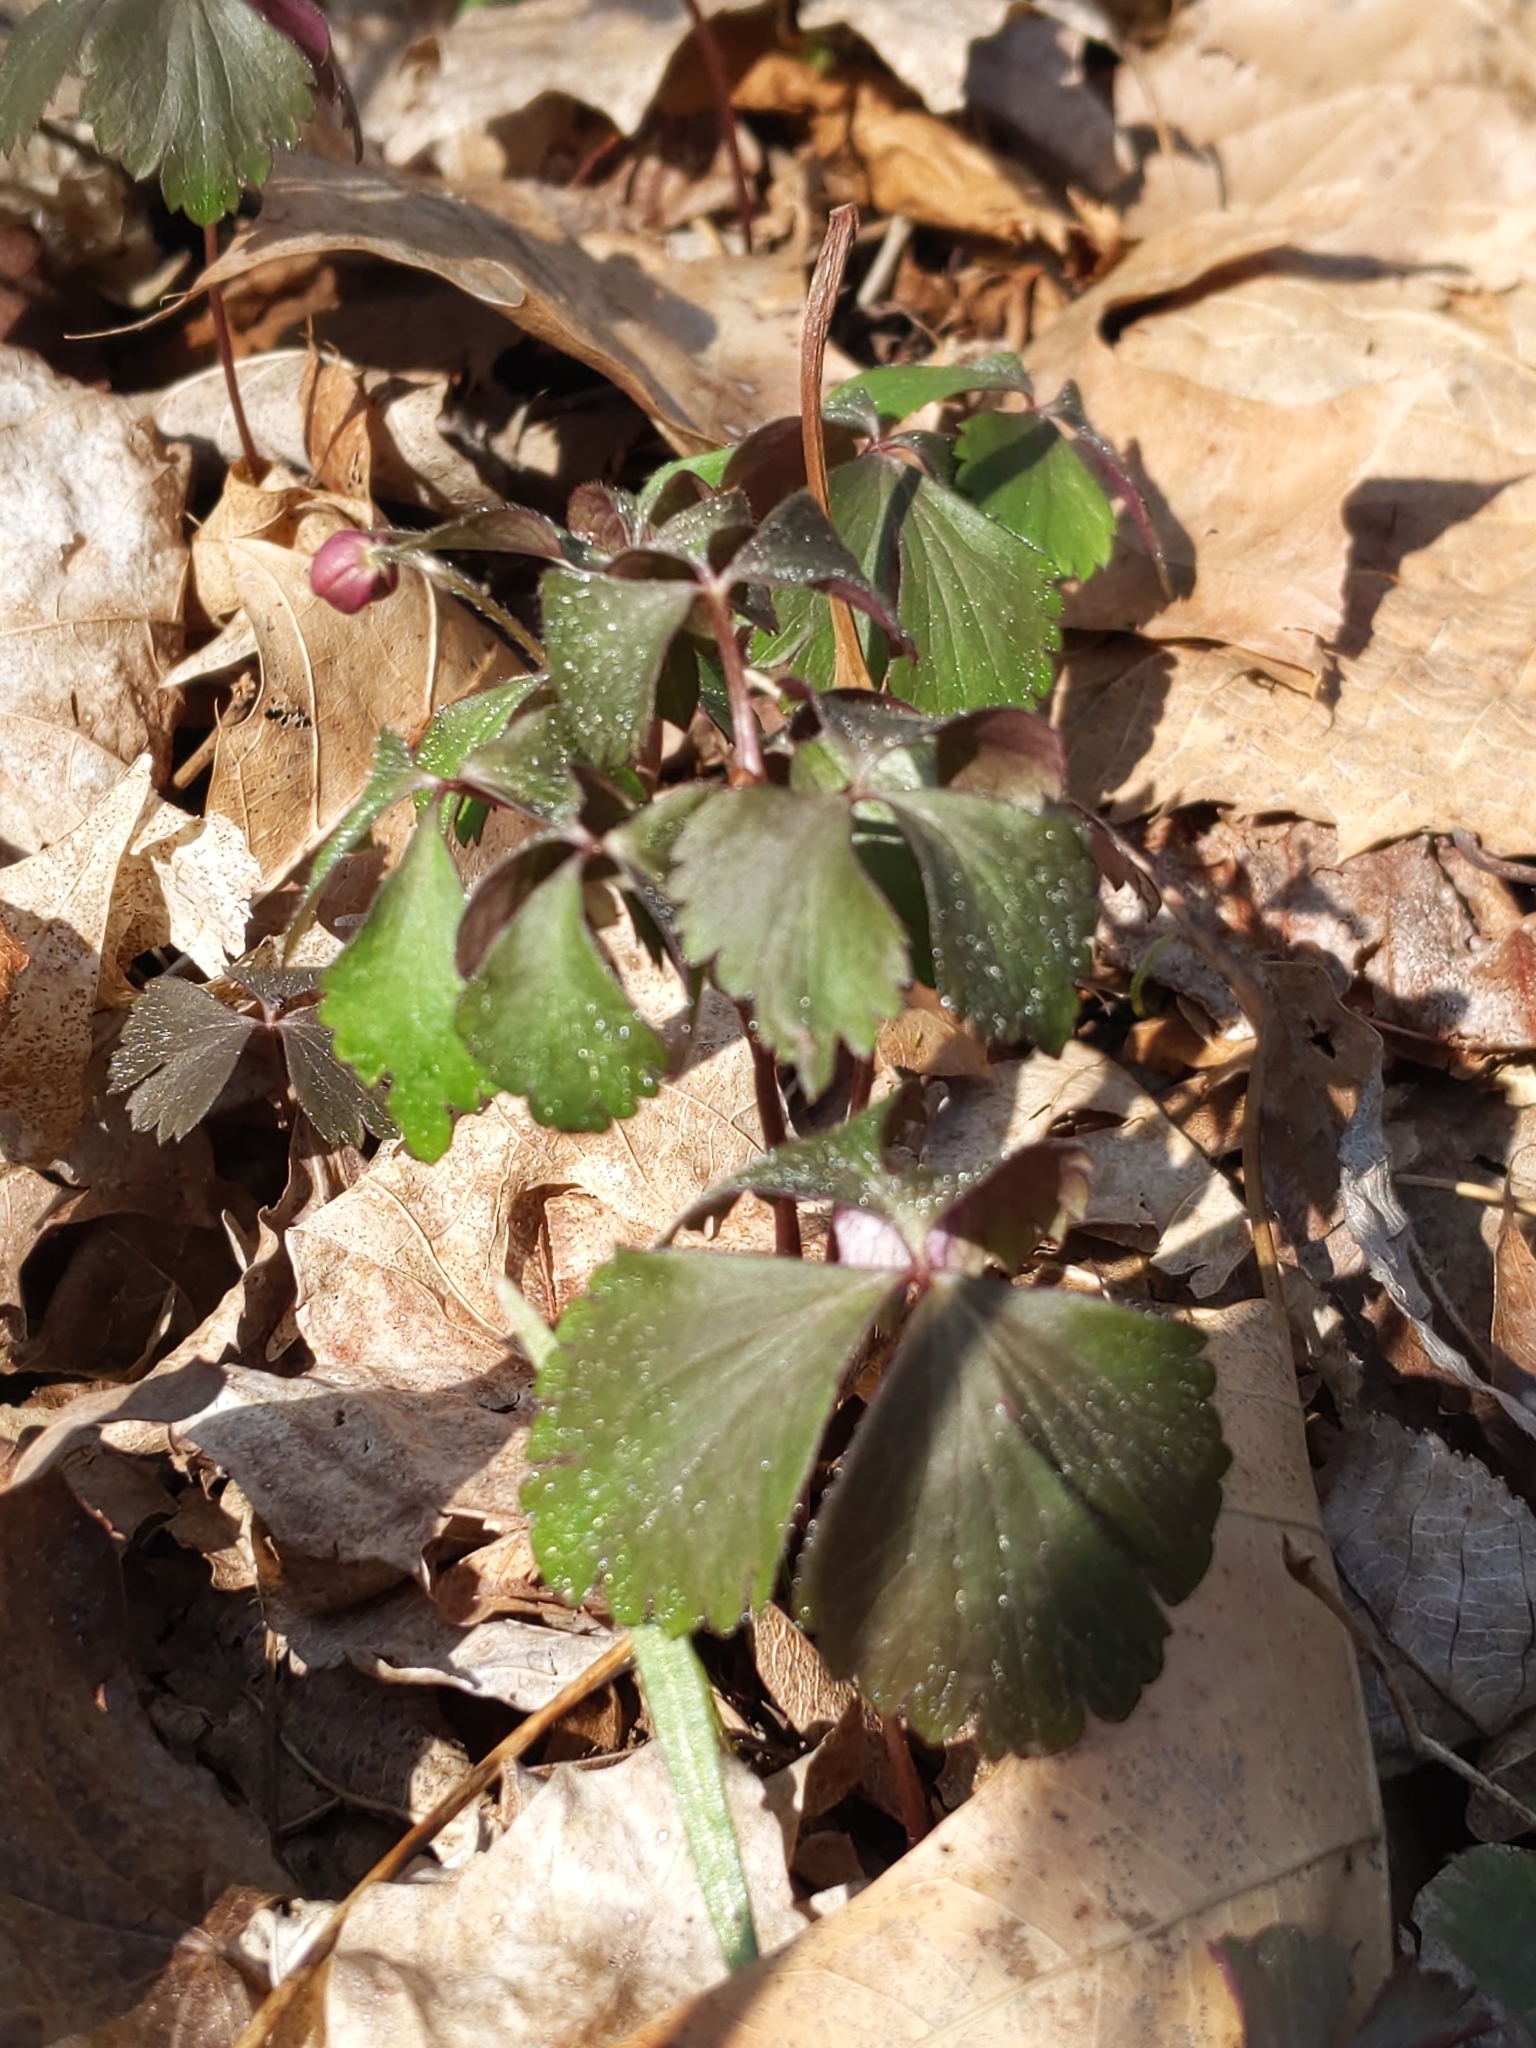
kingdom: Plantae
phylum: Tracheophyta
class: Magnoliopsida
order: Ranunculales
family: Ranunculaceae
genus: Anemone
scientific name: Anemone quinquefolia
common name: Wood anemone
